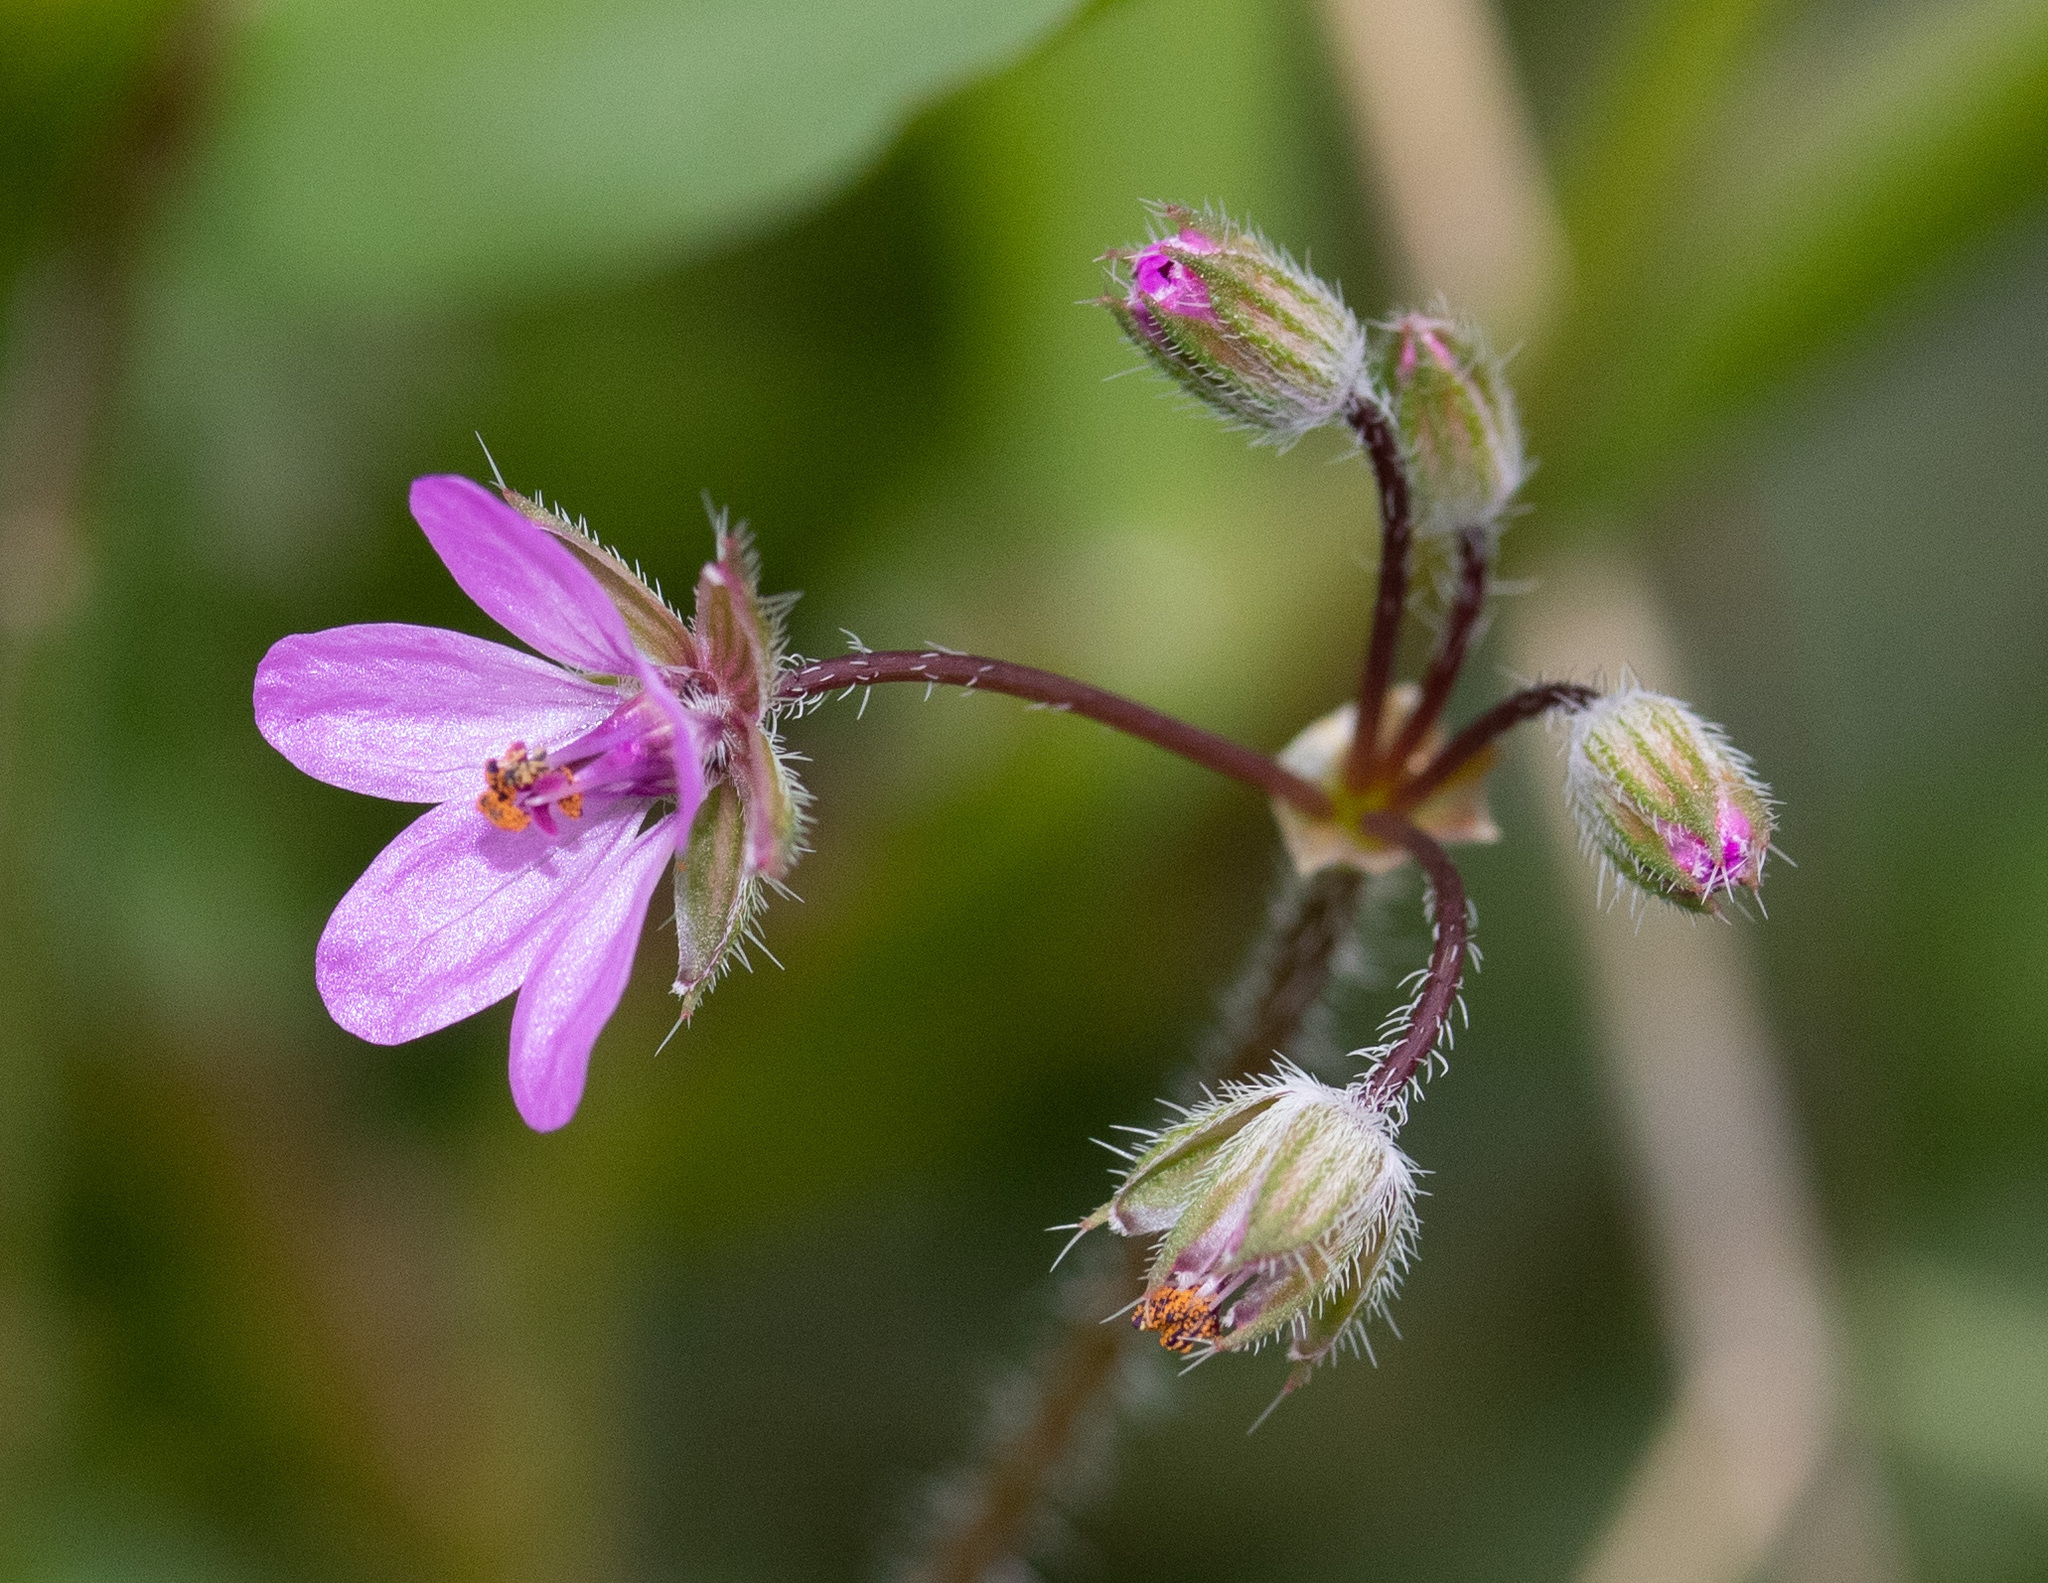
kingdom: Plantae
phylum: Tracheophyta
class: Magnoliopsida
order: Geraniales
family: Geraniaceae
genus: Erodium
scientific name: Erodium cicutarium
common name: Common stork's-bill
